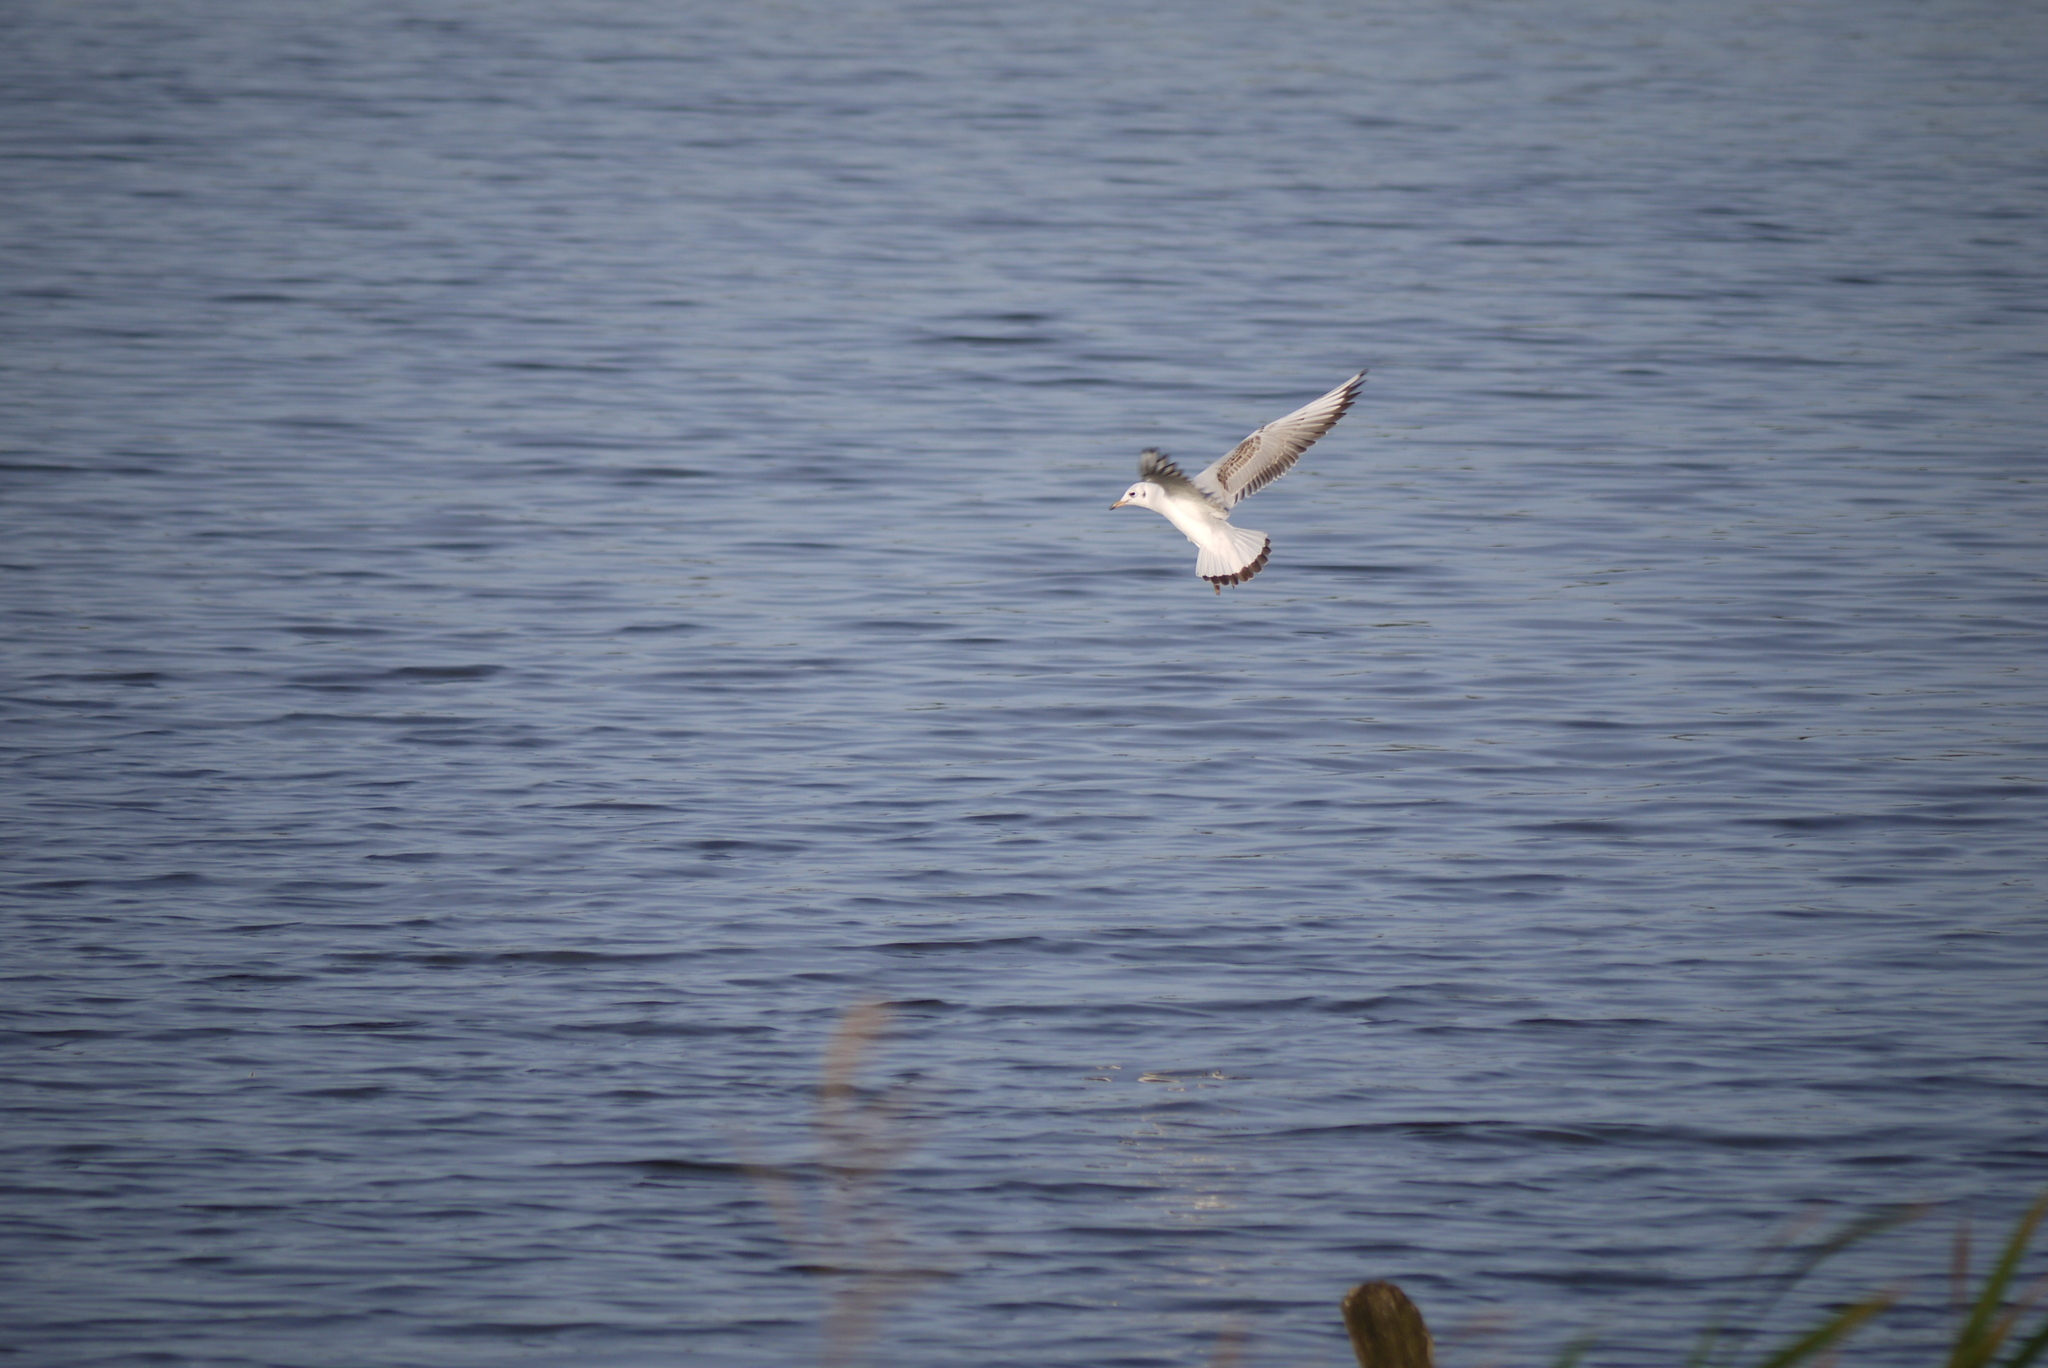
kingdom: Animalia
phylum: Chordata
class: Aves
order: Charadriiformes
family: Laridae
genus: Chroicocephalus
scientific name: Chroicocephalus ridibundus
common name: Black-headed gull
